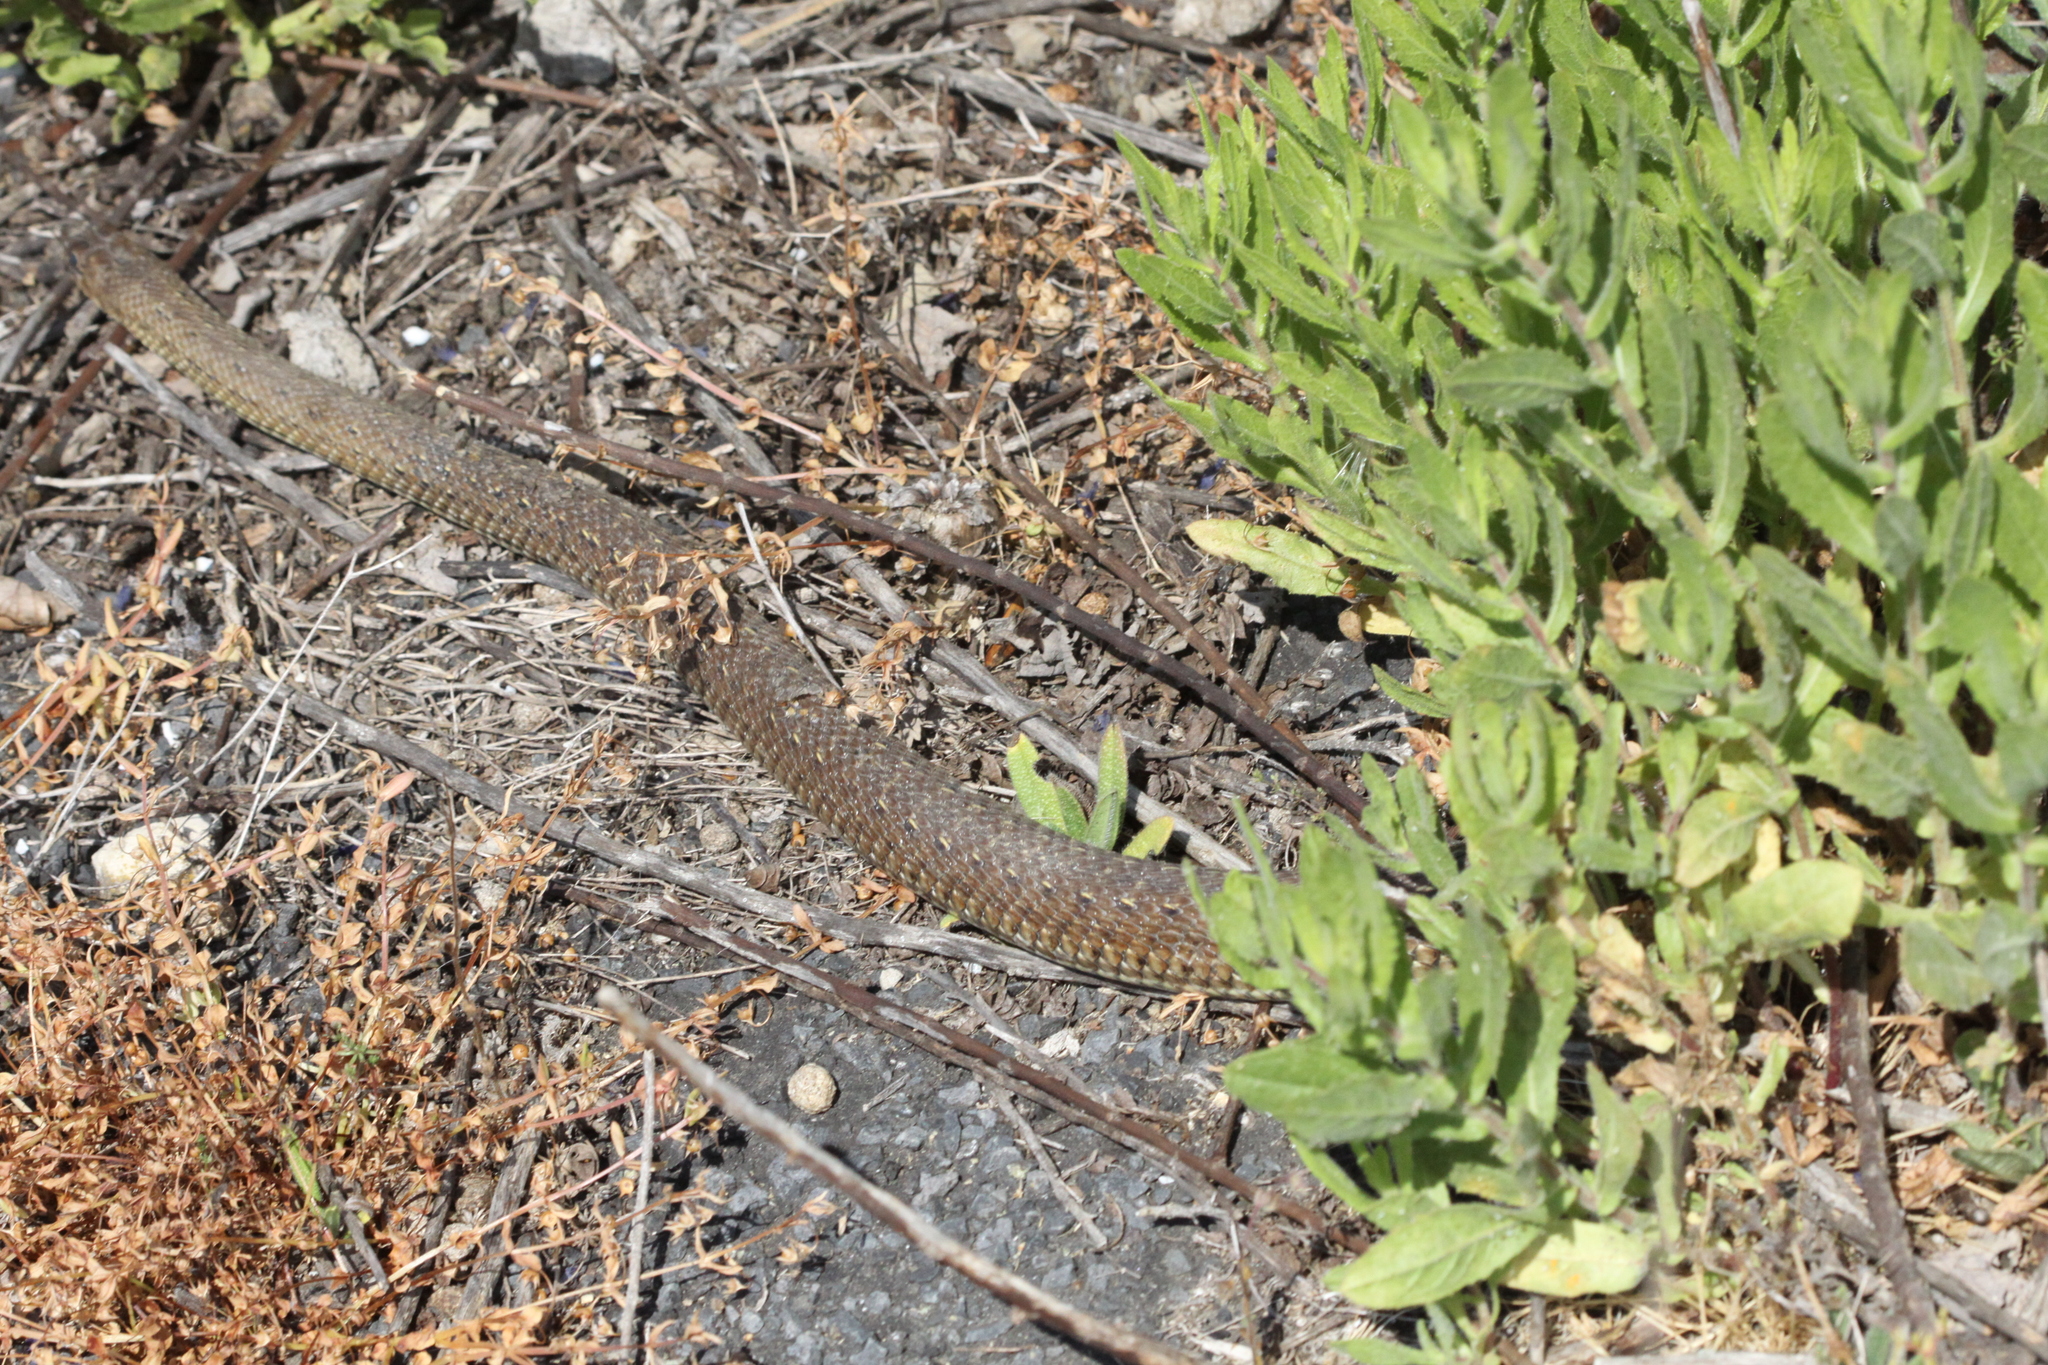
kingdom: Animalia
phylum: Chordata
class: Squamata
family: Psammophiidae
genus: Malpolon
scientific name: Malpolon monspessulanus
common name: Montpellier snake
